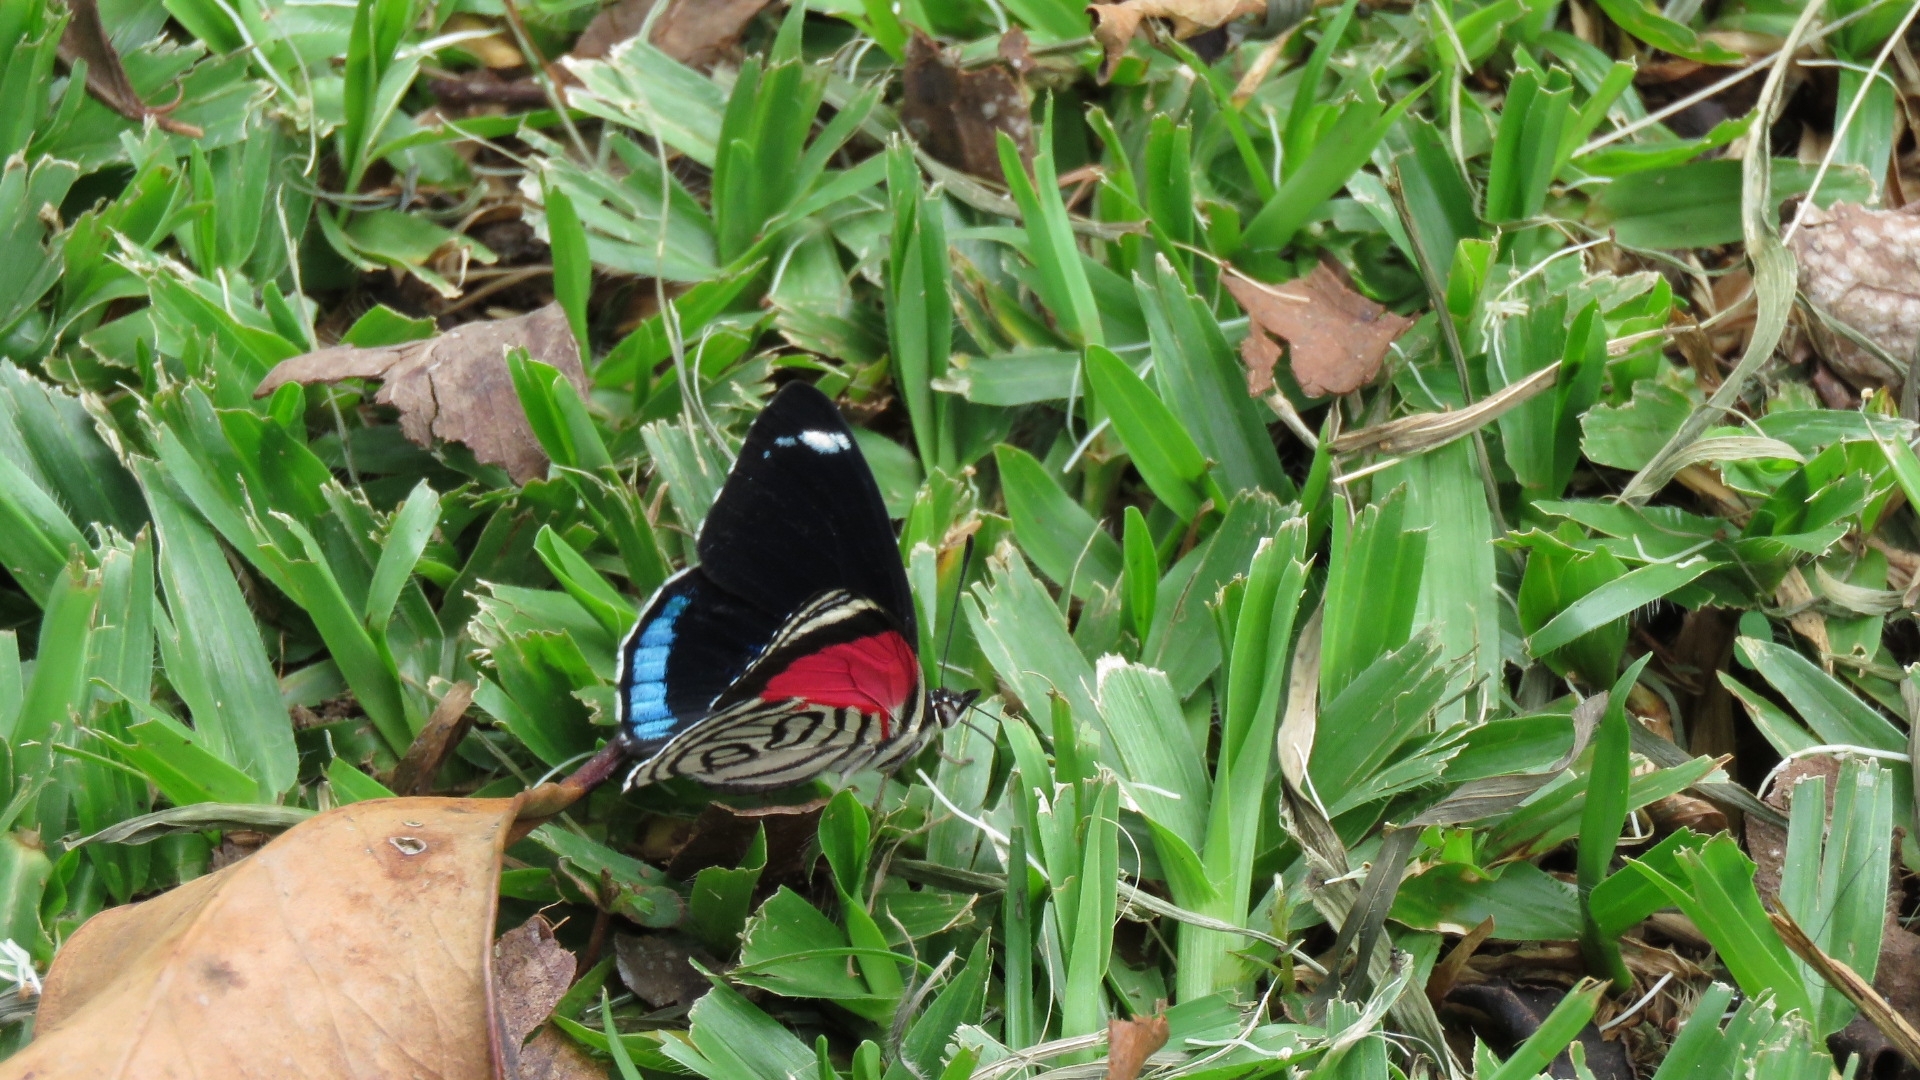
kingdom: Animalia
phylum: Arthropoda
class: Insecta
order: Lepidoptera
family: Nymphalidae
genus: Diaethria
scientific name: Diaethria candrena
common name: Number eighty
